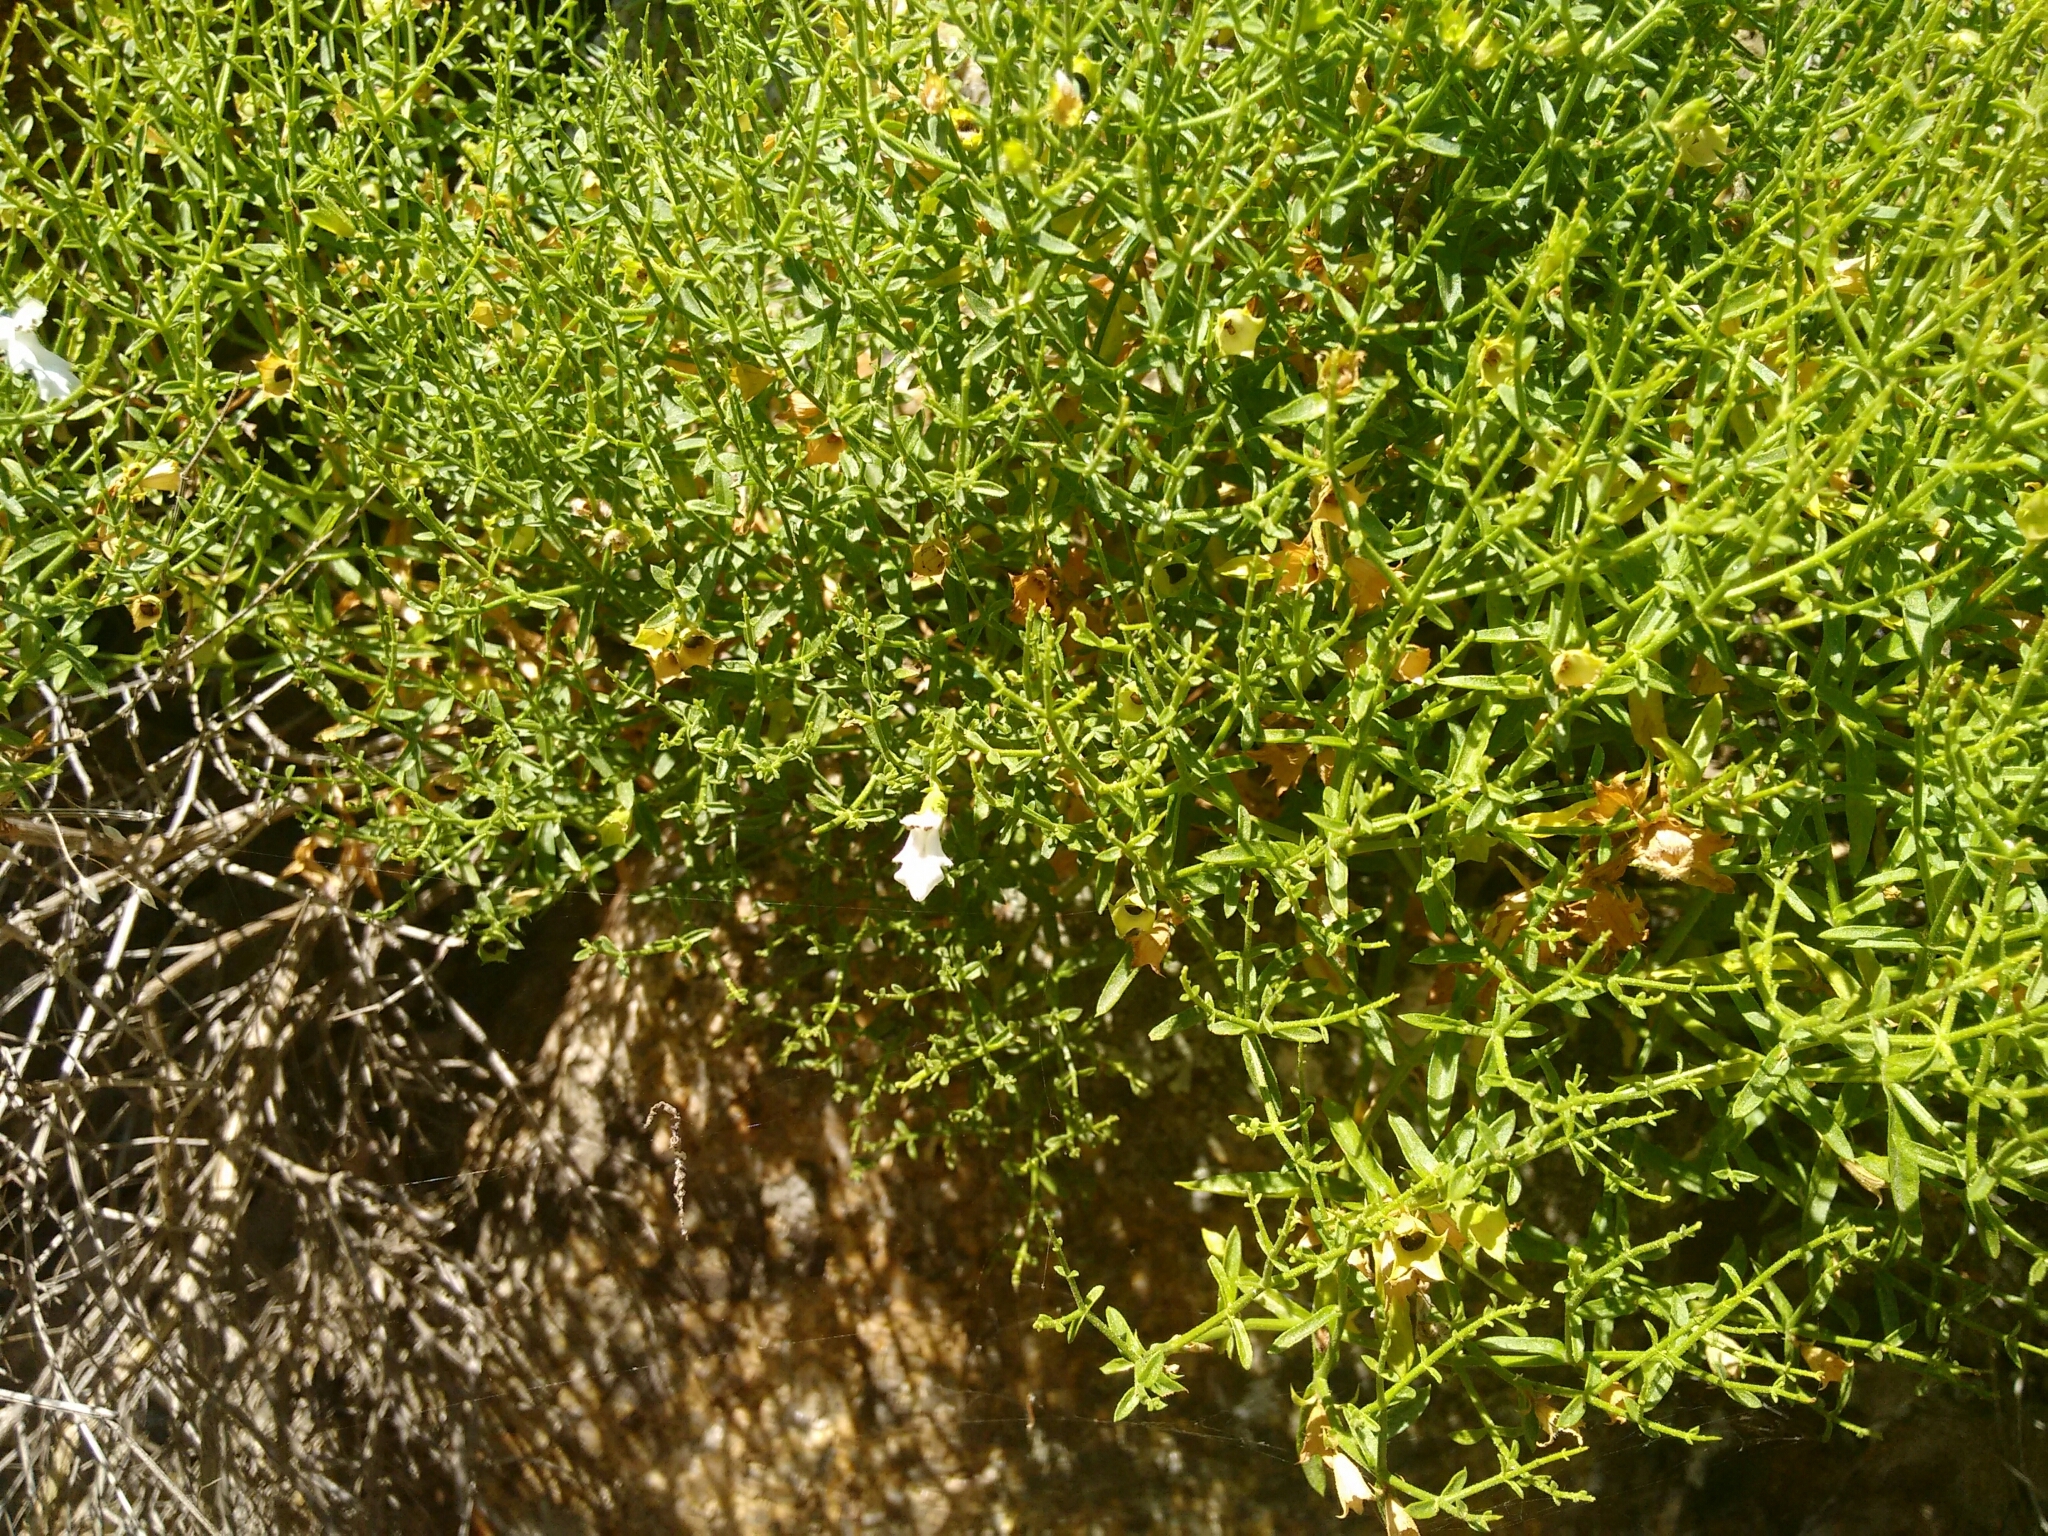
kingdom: Plantae
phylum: Tracheophyta
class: Magnoliopsida
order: Lamiales
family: Lamiaceae
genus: Stachys
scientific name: Stachys glutinosa
